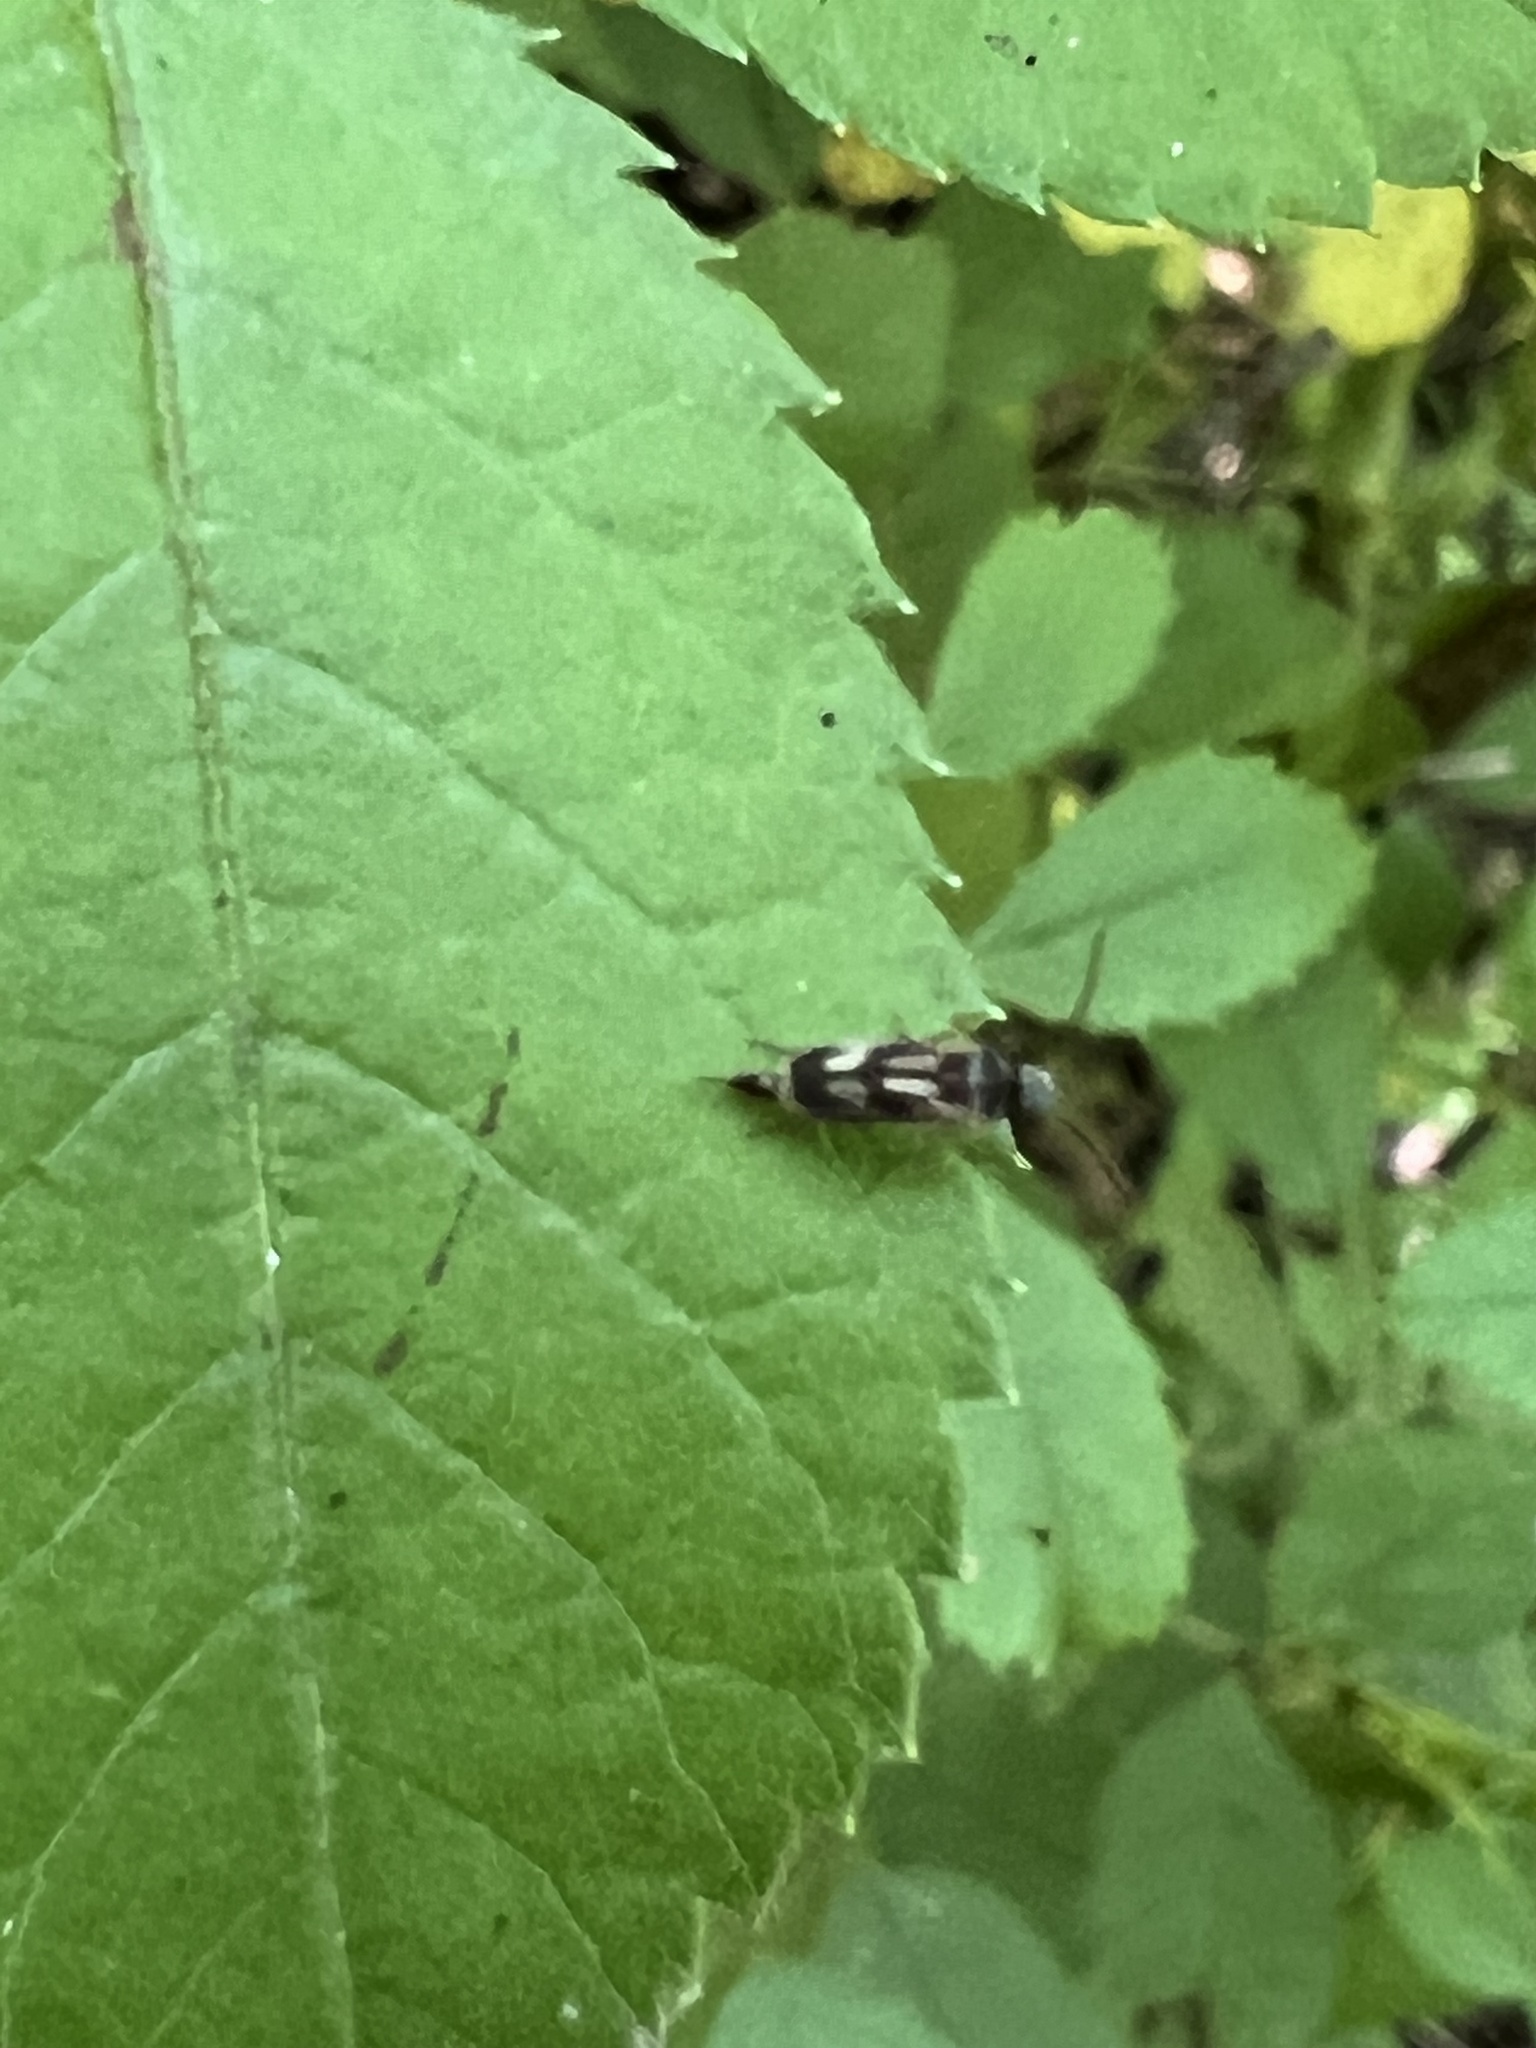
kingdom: Animalia
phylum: Arthropoda
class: Insecta
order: Coleoptera
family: Mordellidae
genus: Falsomordellistena
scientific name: Falsomordellistena bihamata
